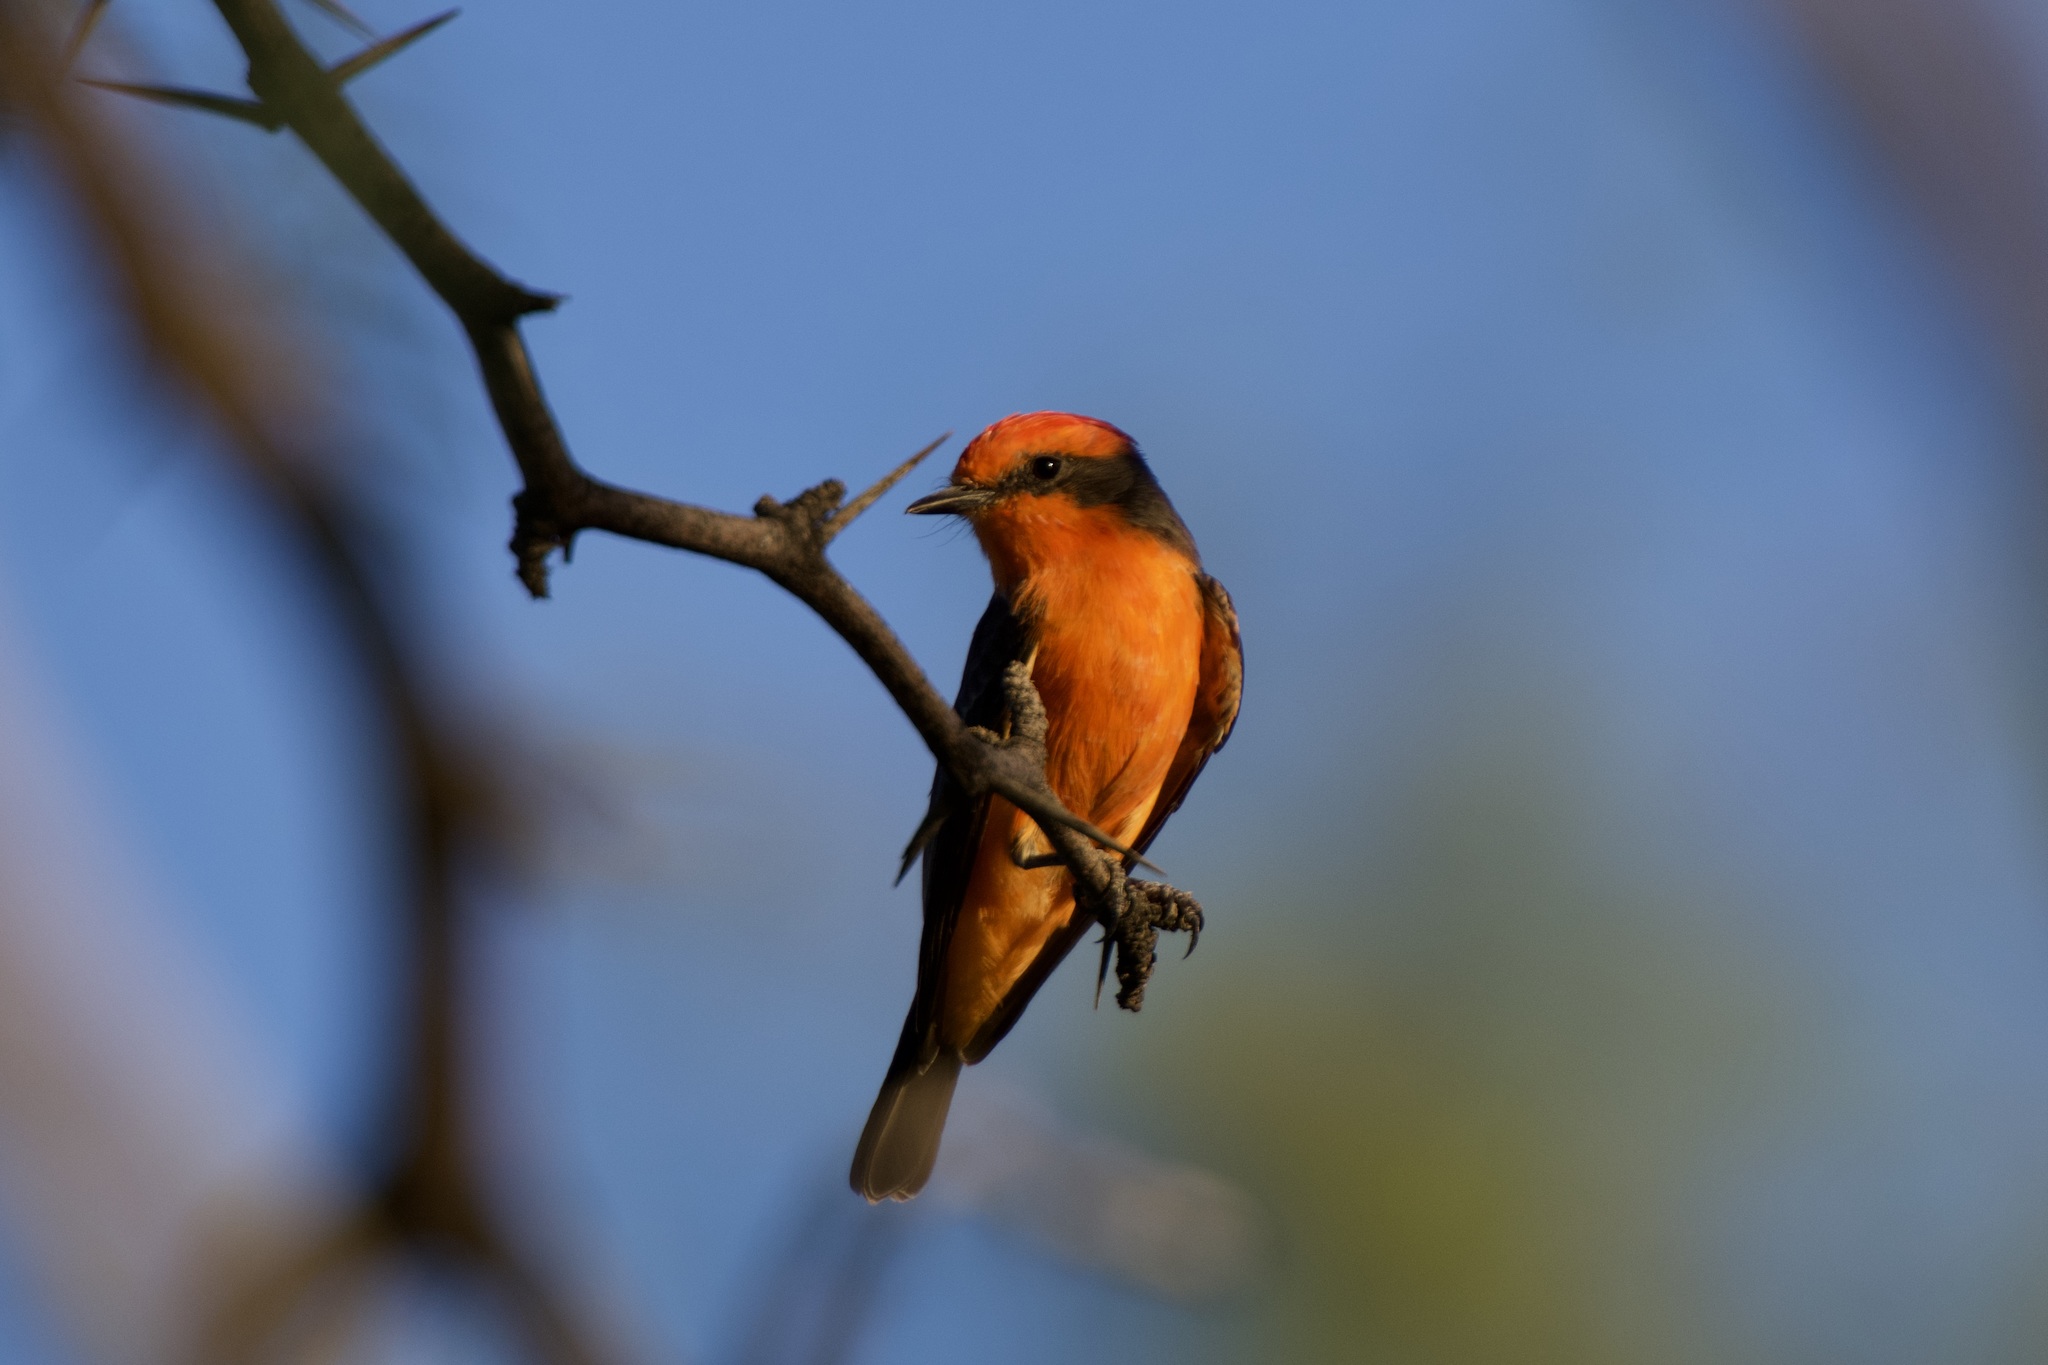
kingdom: Animalia
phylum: Chordata
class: Aves
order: Passeriformes
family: Tyrannidae
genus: Pyrocephalus
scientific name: Pyrocephalus rubinus
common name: Vermilion flycatcher
